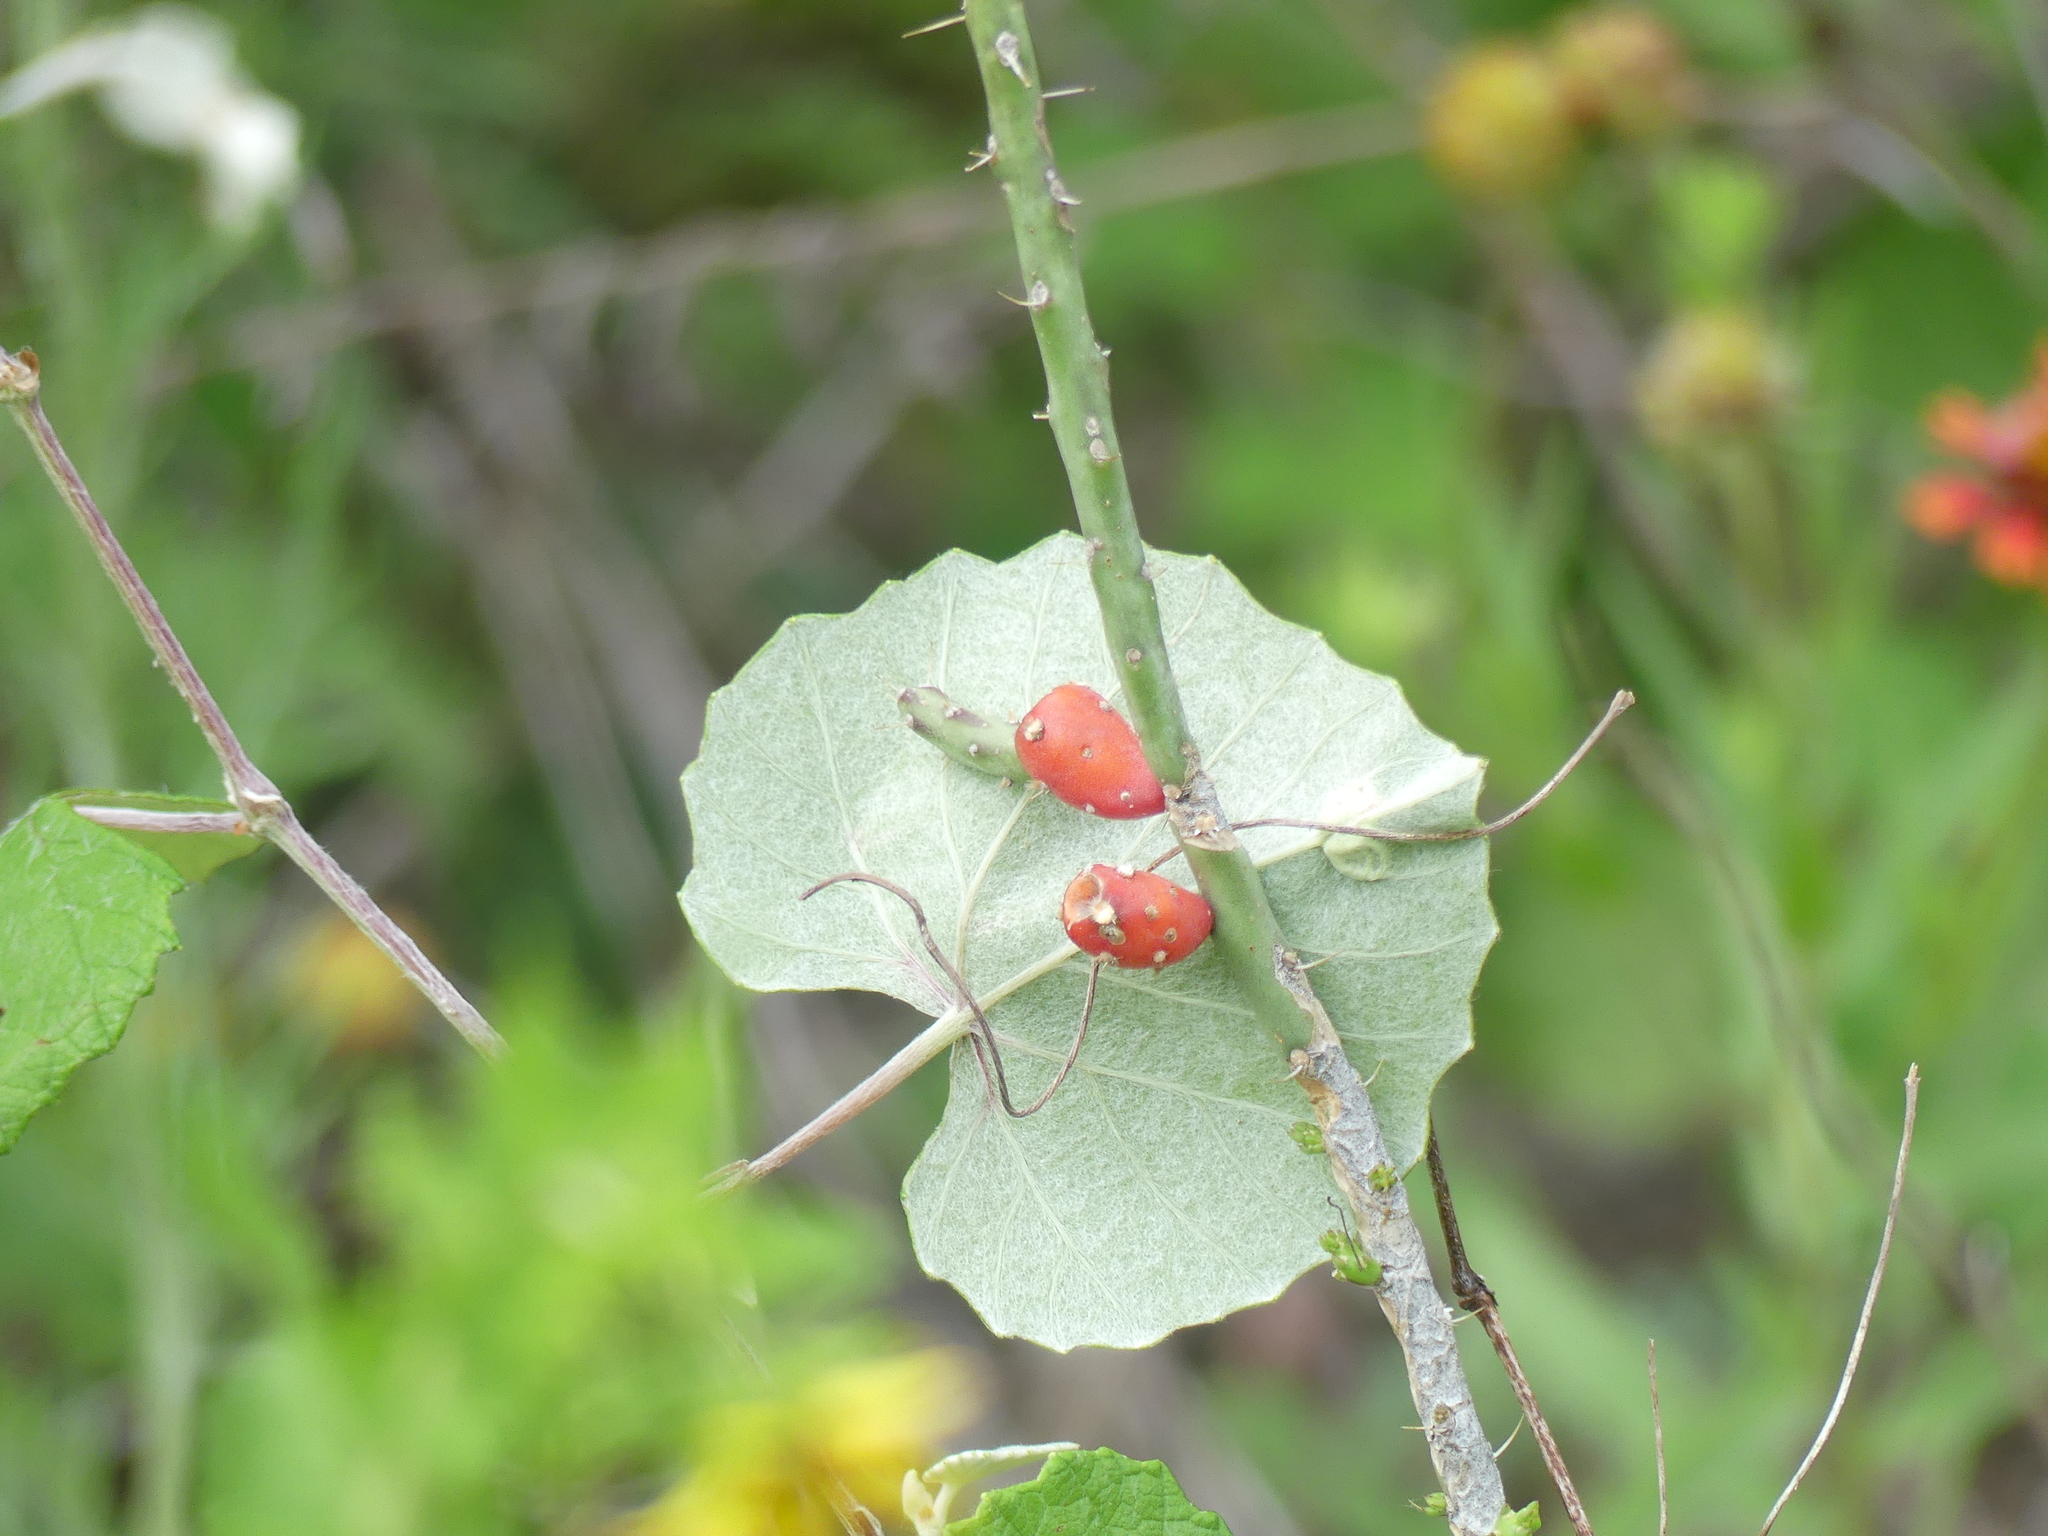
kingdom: Plantae
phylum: Tracheophyta
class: Magnoliopsida
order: Caryophyllales
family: Cactaceae
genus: Cylindropuntia
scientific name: Cylindropuntia leptocaulis
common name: Christmas cactus
